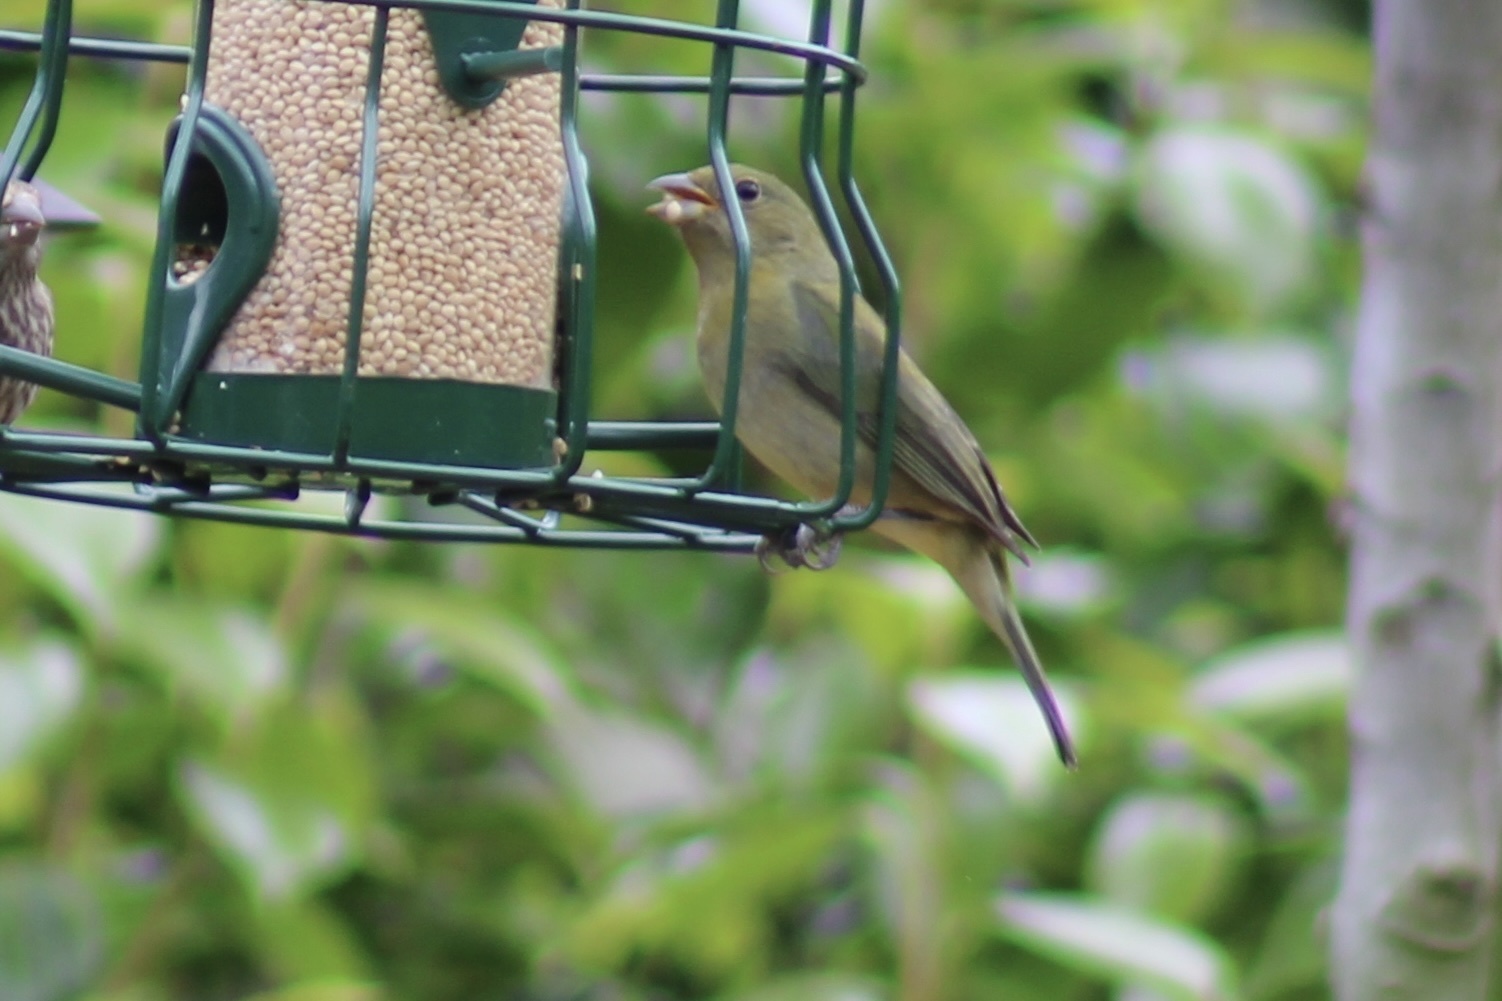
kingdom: Animalia
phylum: Chordata
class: Aves
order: Passeriformes
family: Cardinalidae
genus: Passerina
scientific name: Passerina ciris
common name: Painted bunting
